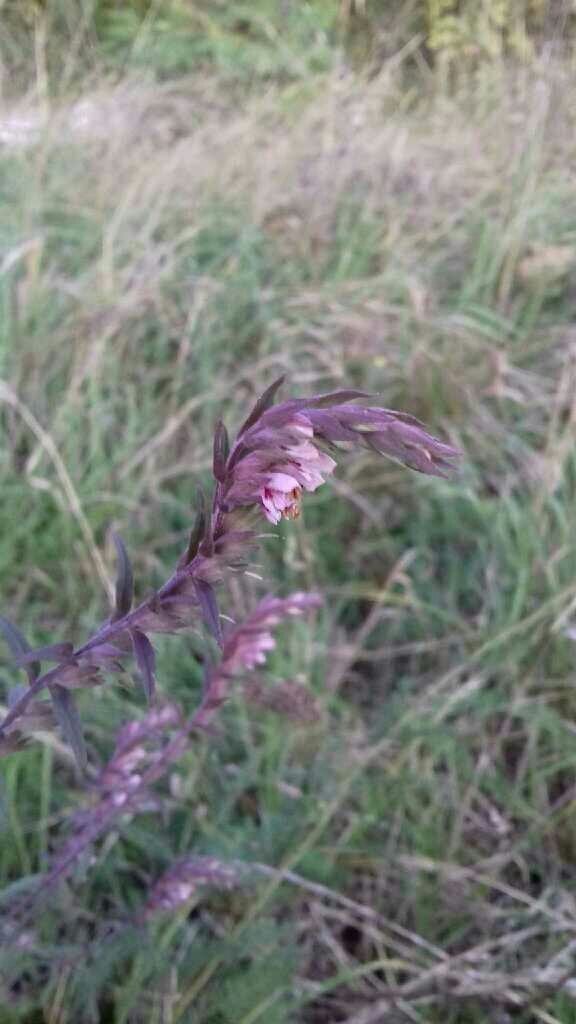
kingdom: Plantae
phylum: Tracheophyta
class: Magnoliopsida
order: Lamiales
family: Orobanchaceae
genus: Odontites
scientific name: Odontites vulgaris
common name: Broomrape
